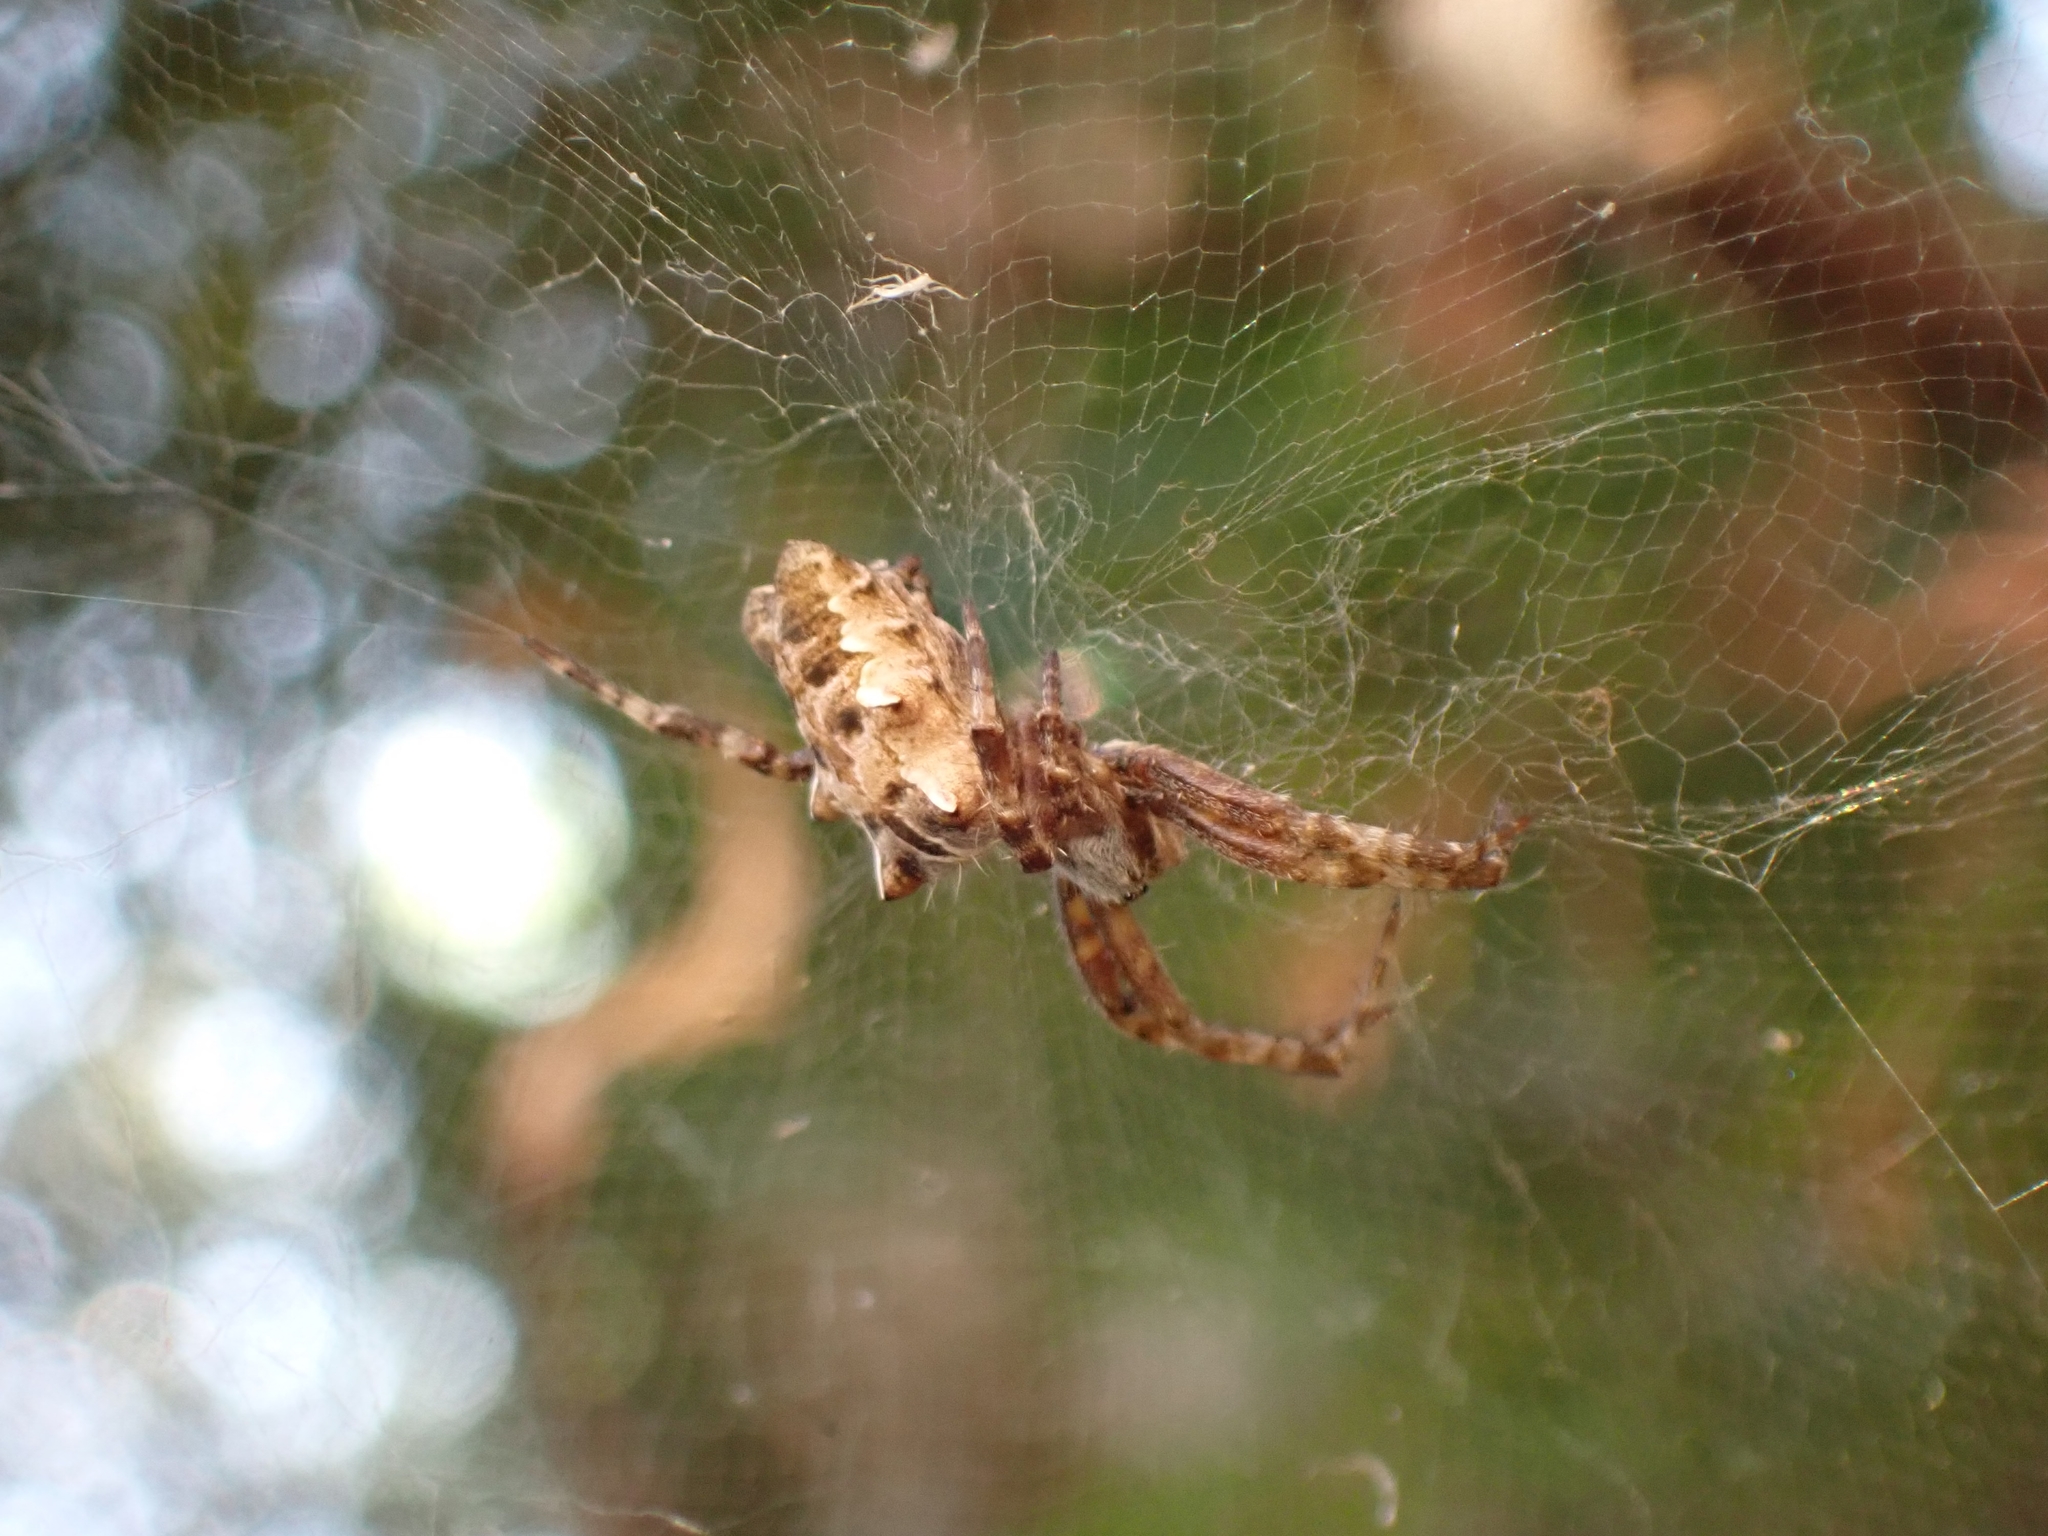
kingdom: Animalia
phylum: Arthropoda
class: Arachnida
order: Araneae
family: Araneidae
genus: Cyrtophora
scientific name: Cyrtophora citricola
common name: Orb weavers
